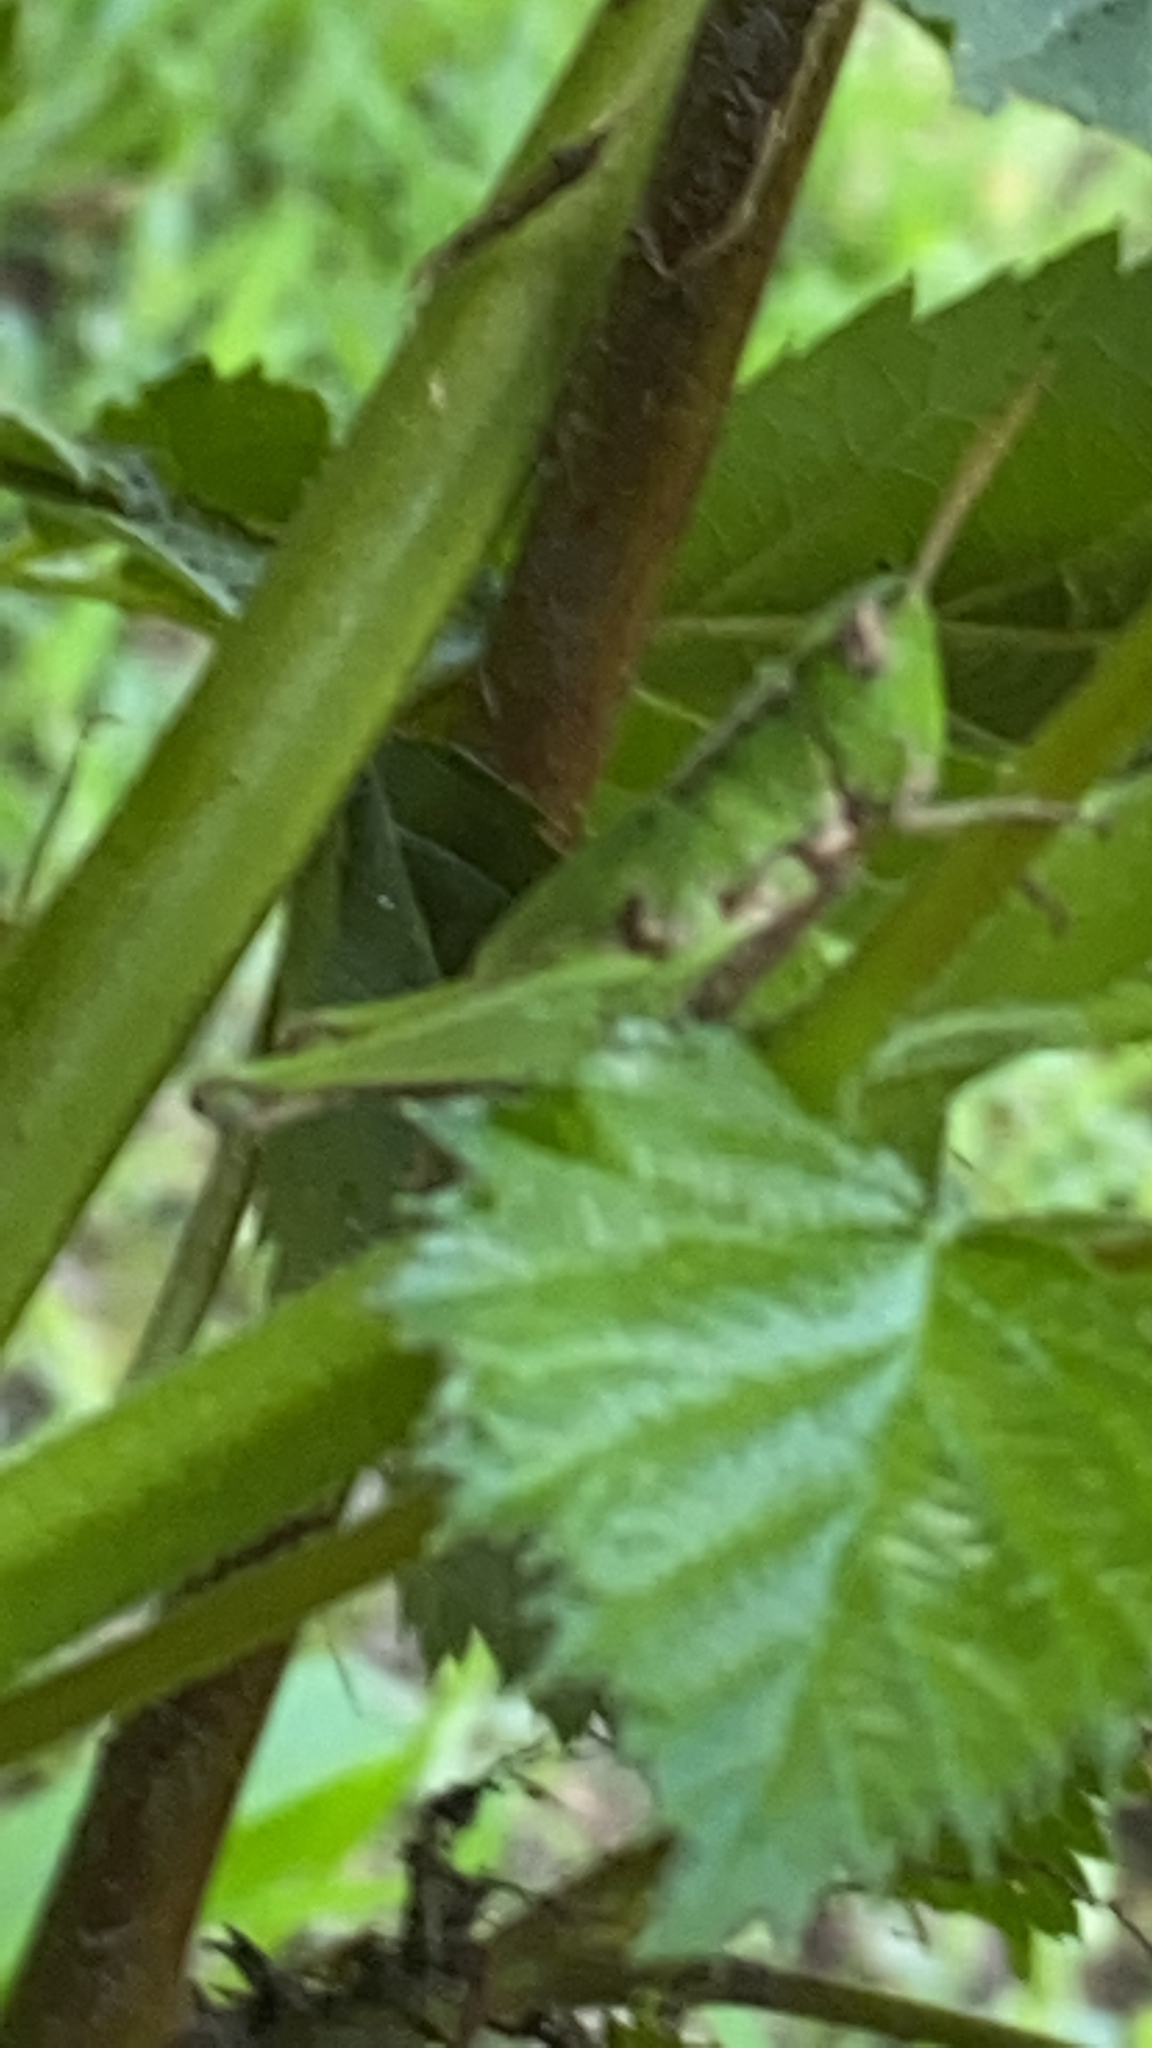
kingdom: Animalia
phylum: Arthropoda
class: Insecta
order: Orthoptera
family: Acrididae
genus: Dichromorpha
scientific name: Dichromorpha viridis
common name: Short-winged green grasshopper
